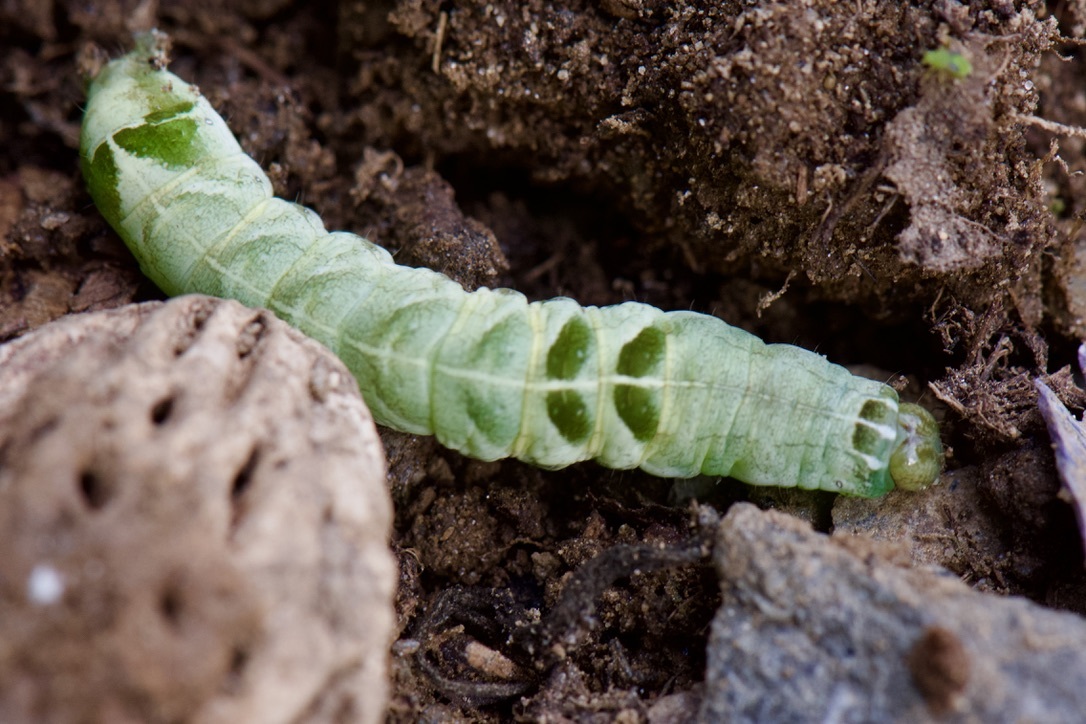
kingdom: Animalia
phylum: Arthropoda
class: Insecta
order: Lepidoptera
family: Noctuidae
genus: Melanchra
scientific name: Melanchra adjuncta
